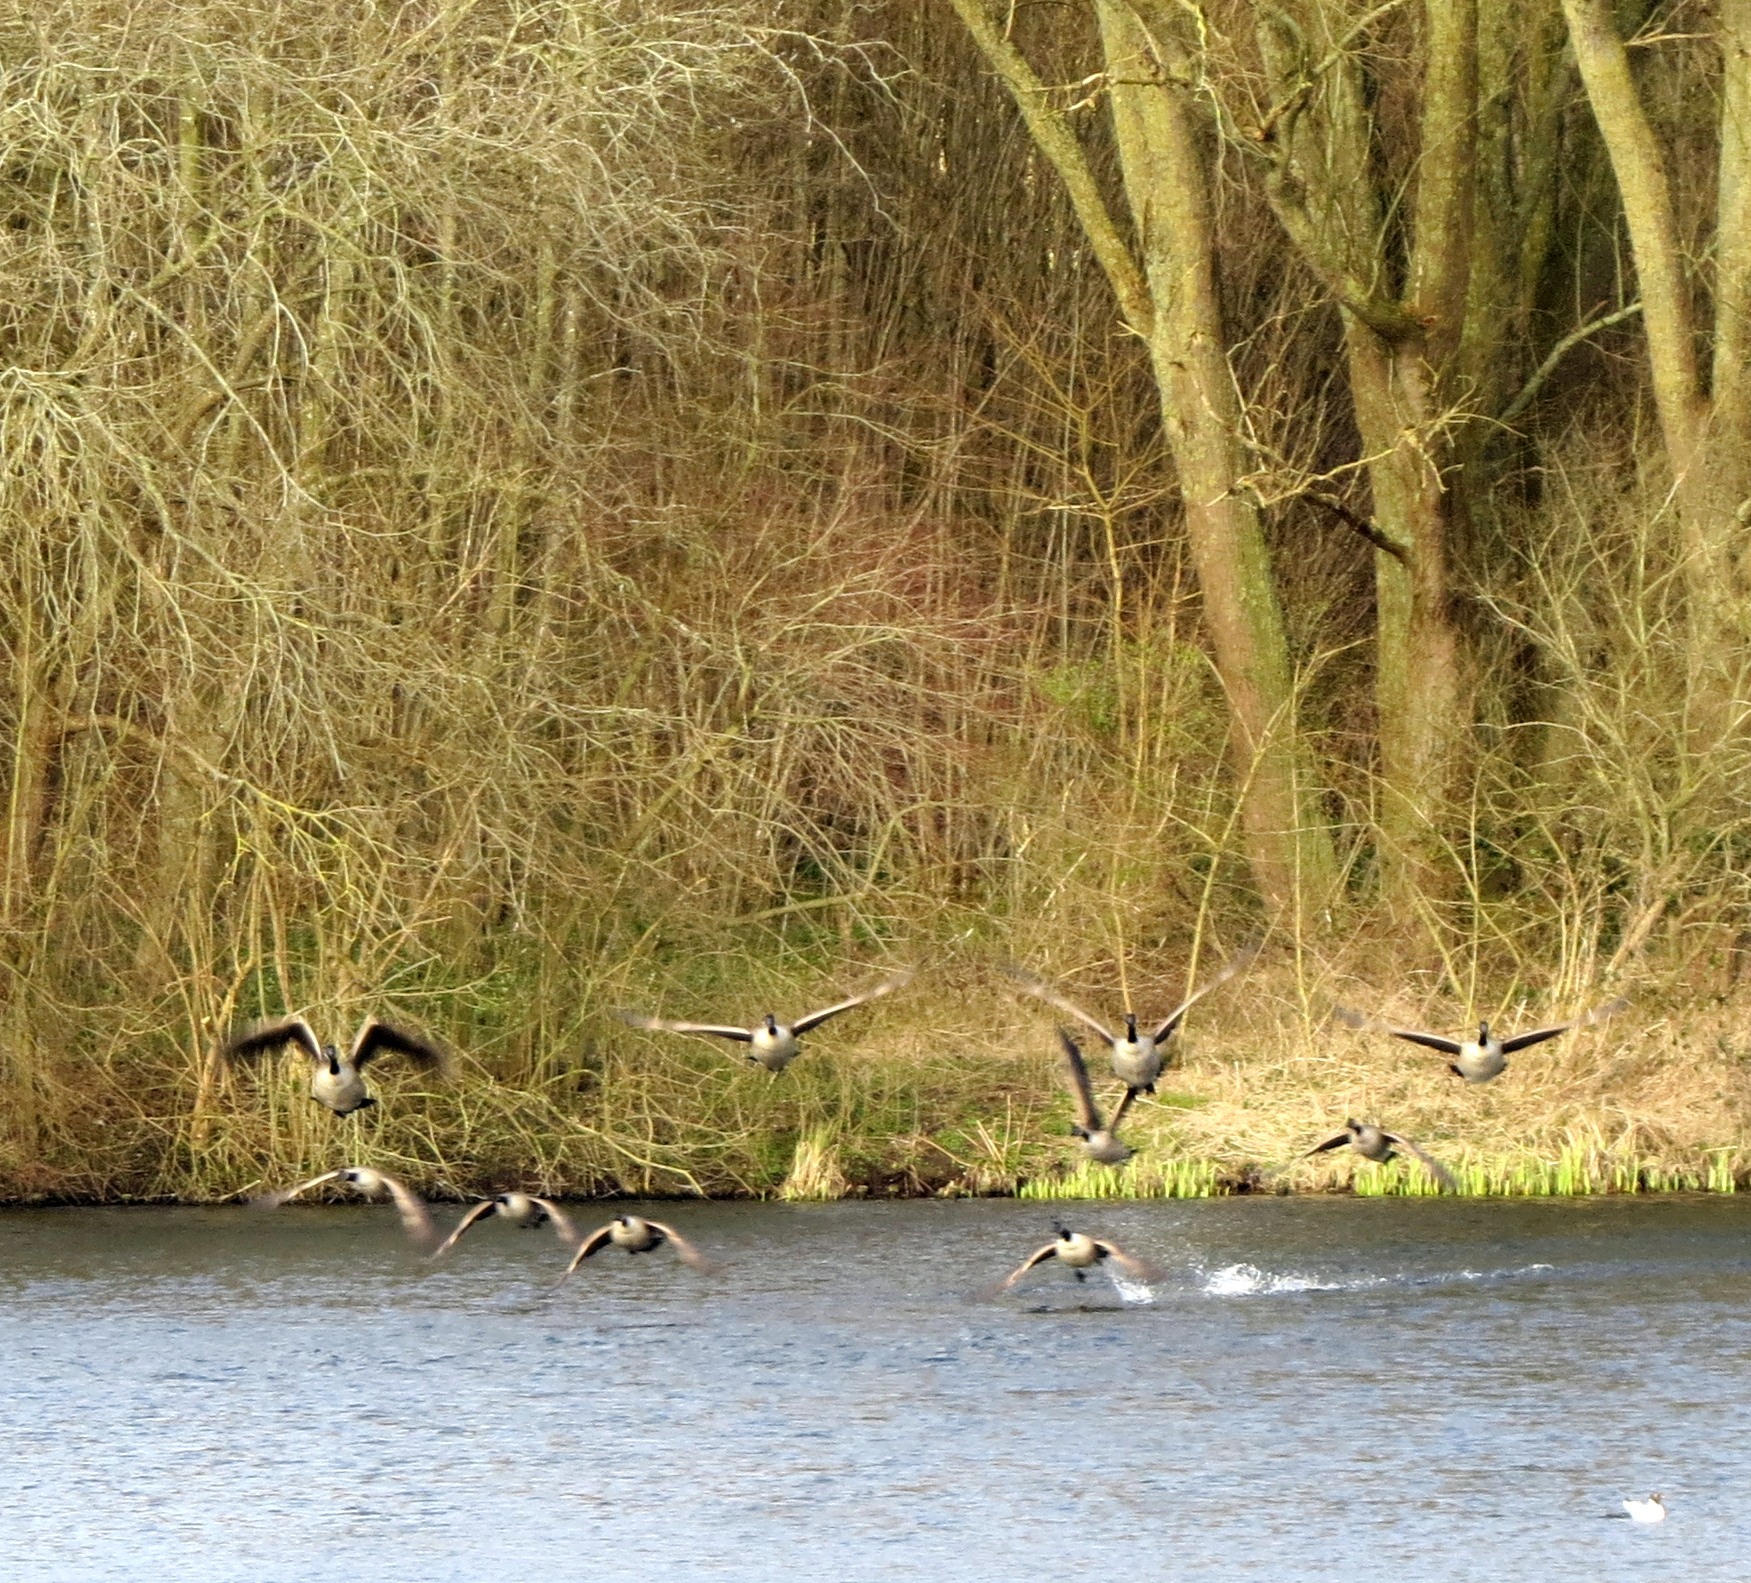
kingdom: Animalia
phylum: Chordata
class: Aves
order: Anseriformes
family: Anatidae
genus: Branta
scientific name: Branta canadensis
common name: Canada goose
